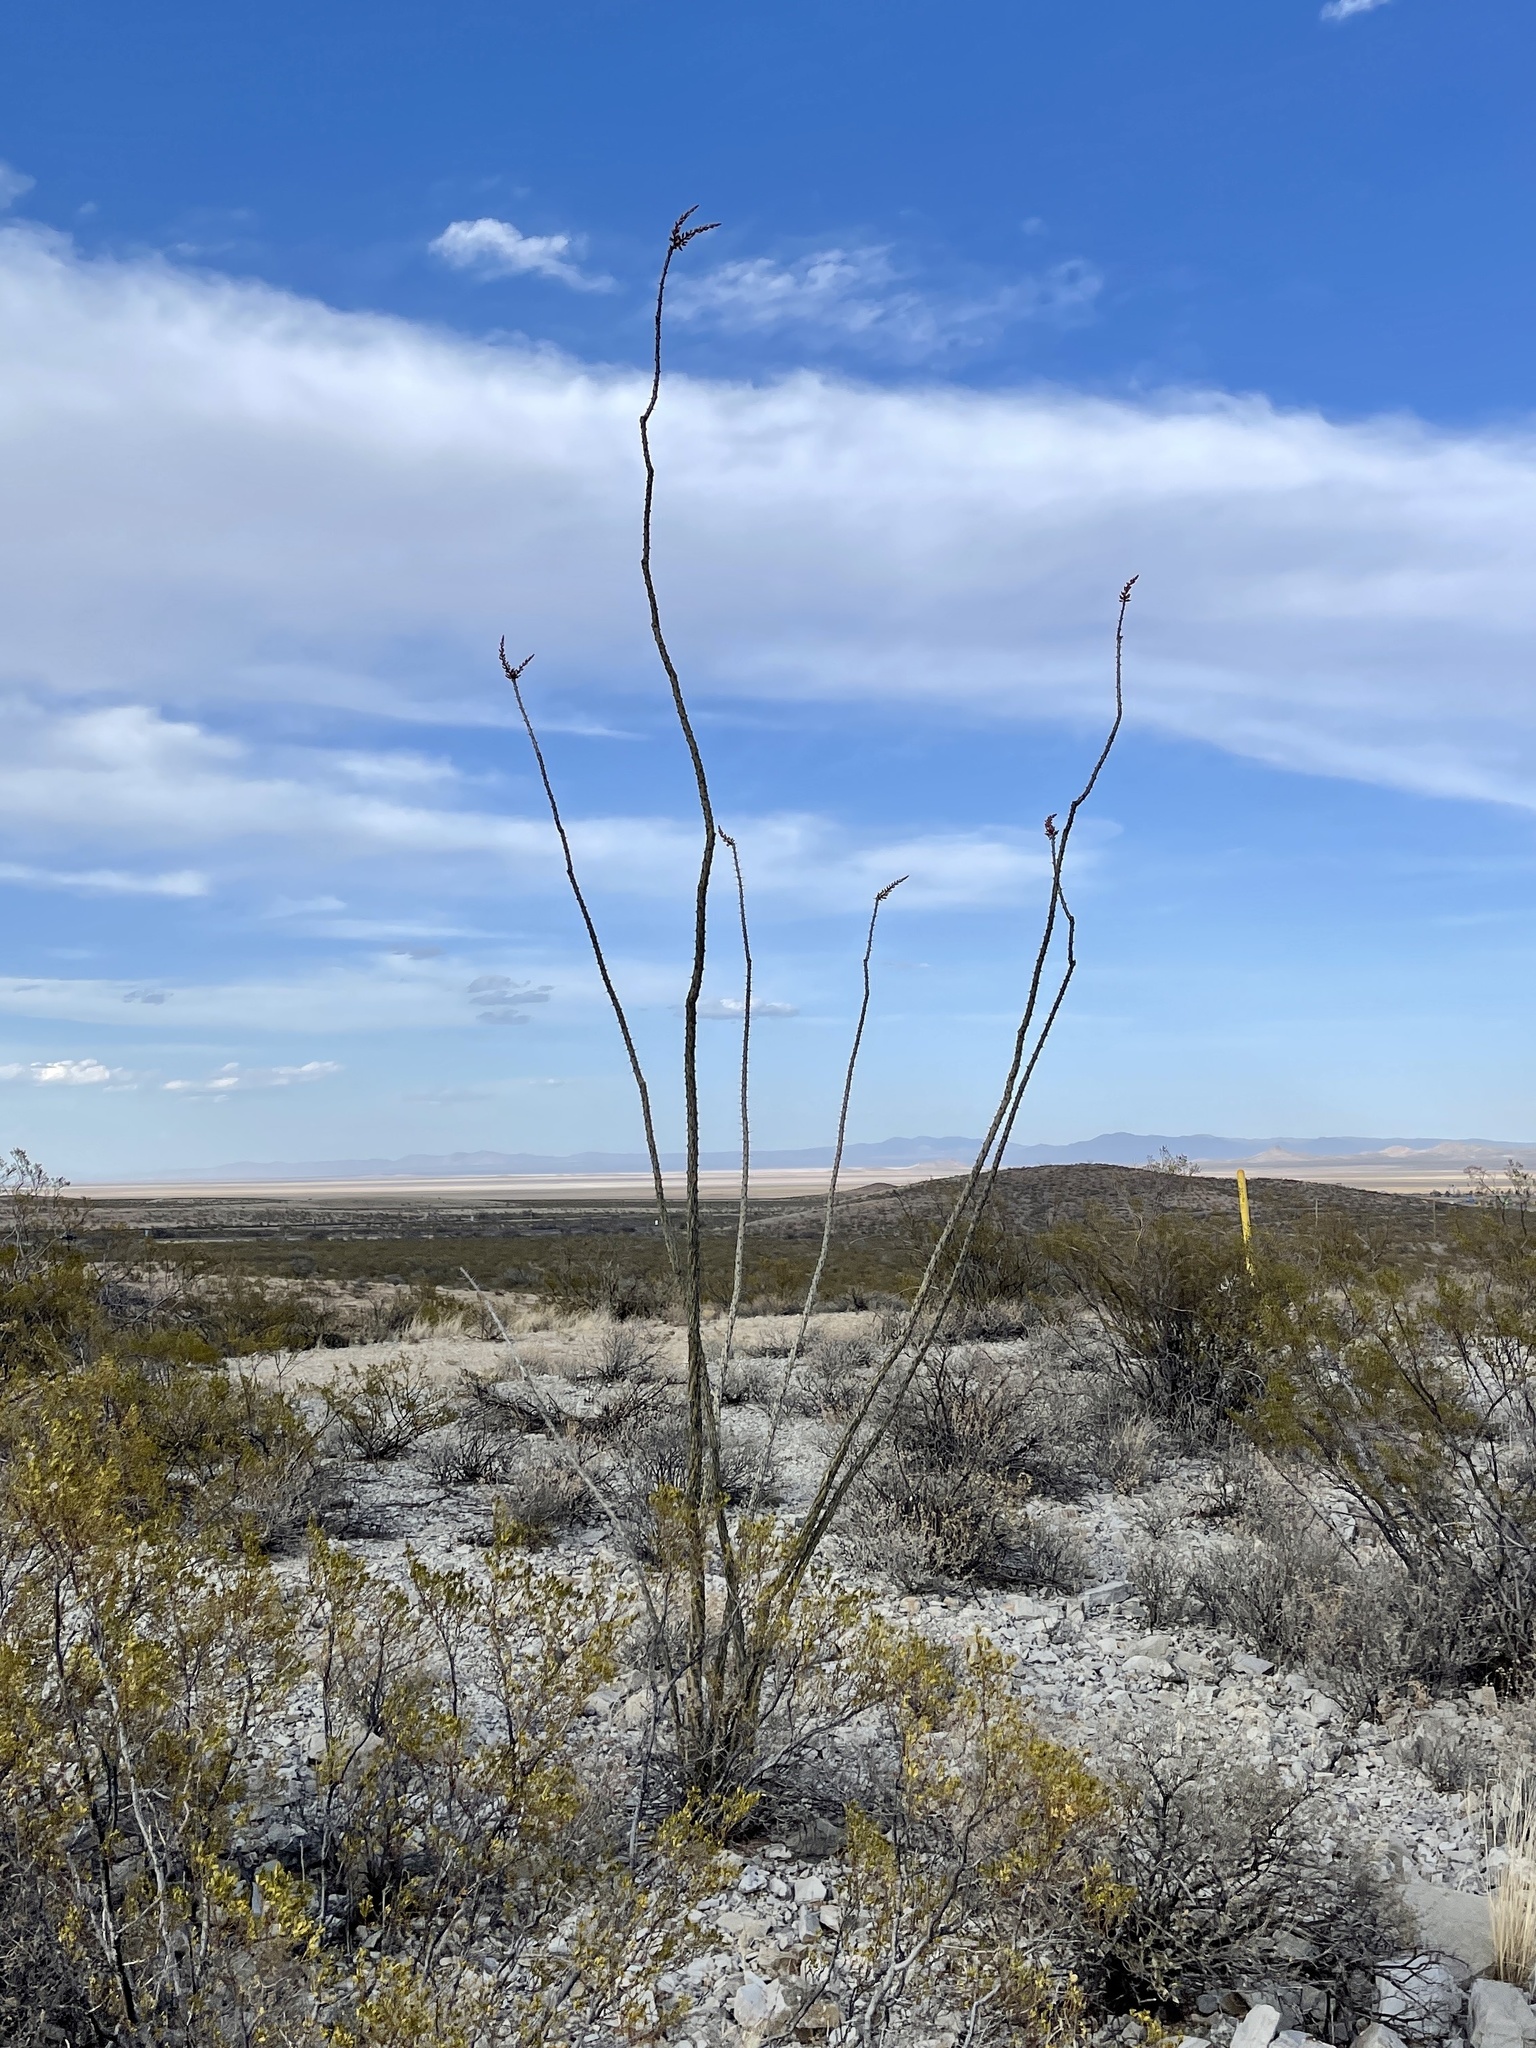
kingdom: Plantae
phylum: Tracheophyta
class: Magnoliopsida
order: Ericales
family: Fouquieriaceae
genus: Fouquieria
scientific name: Fouquieria splendens
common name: Vine-cactus
